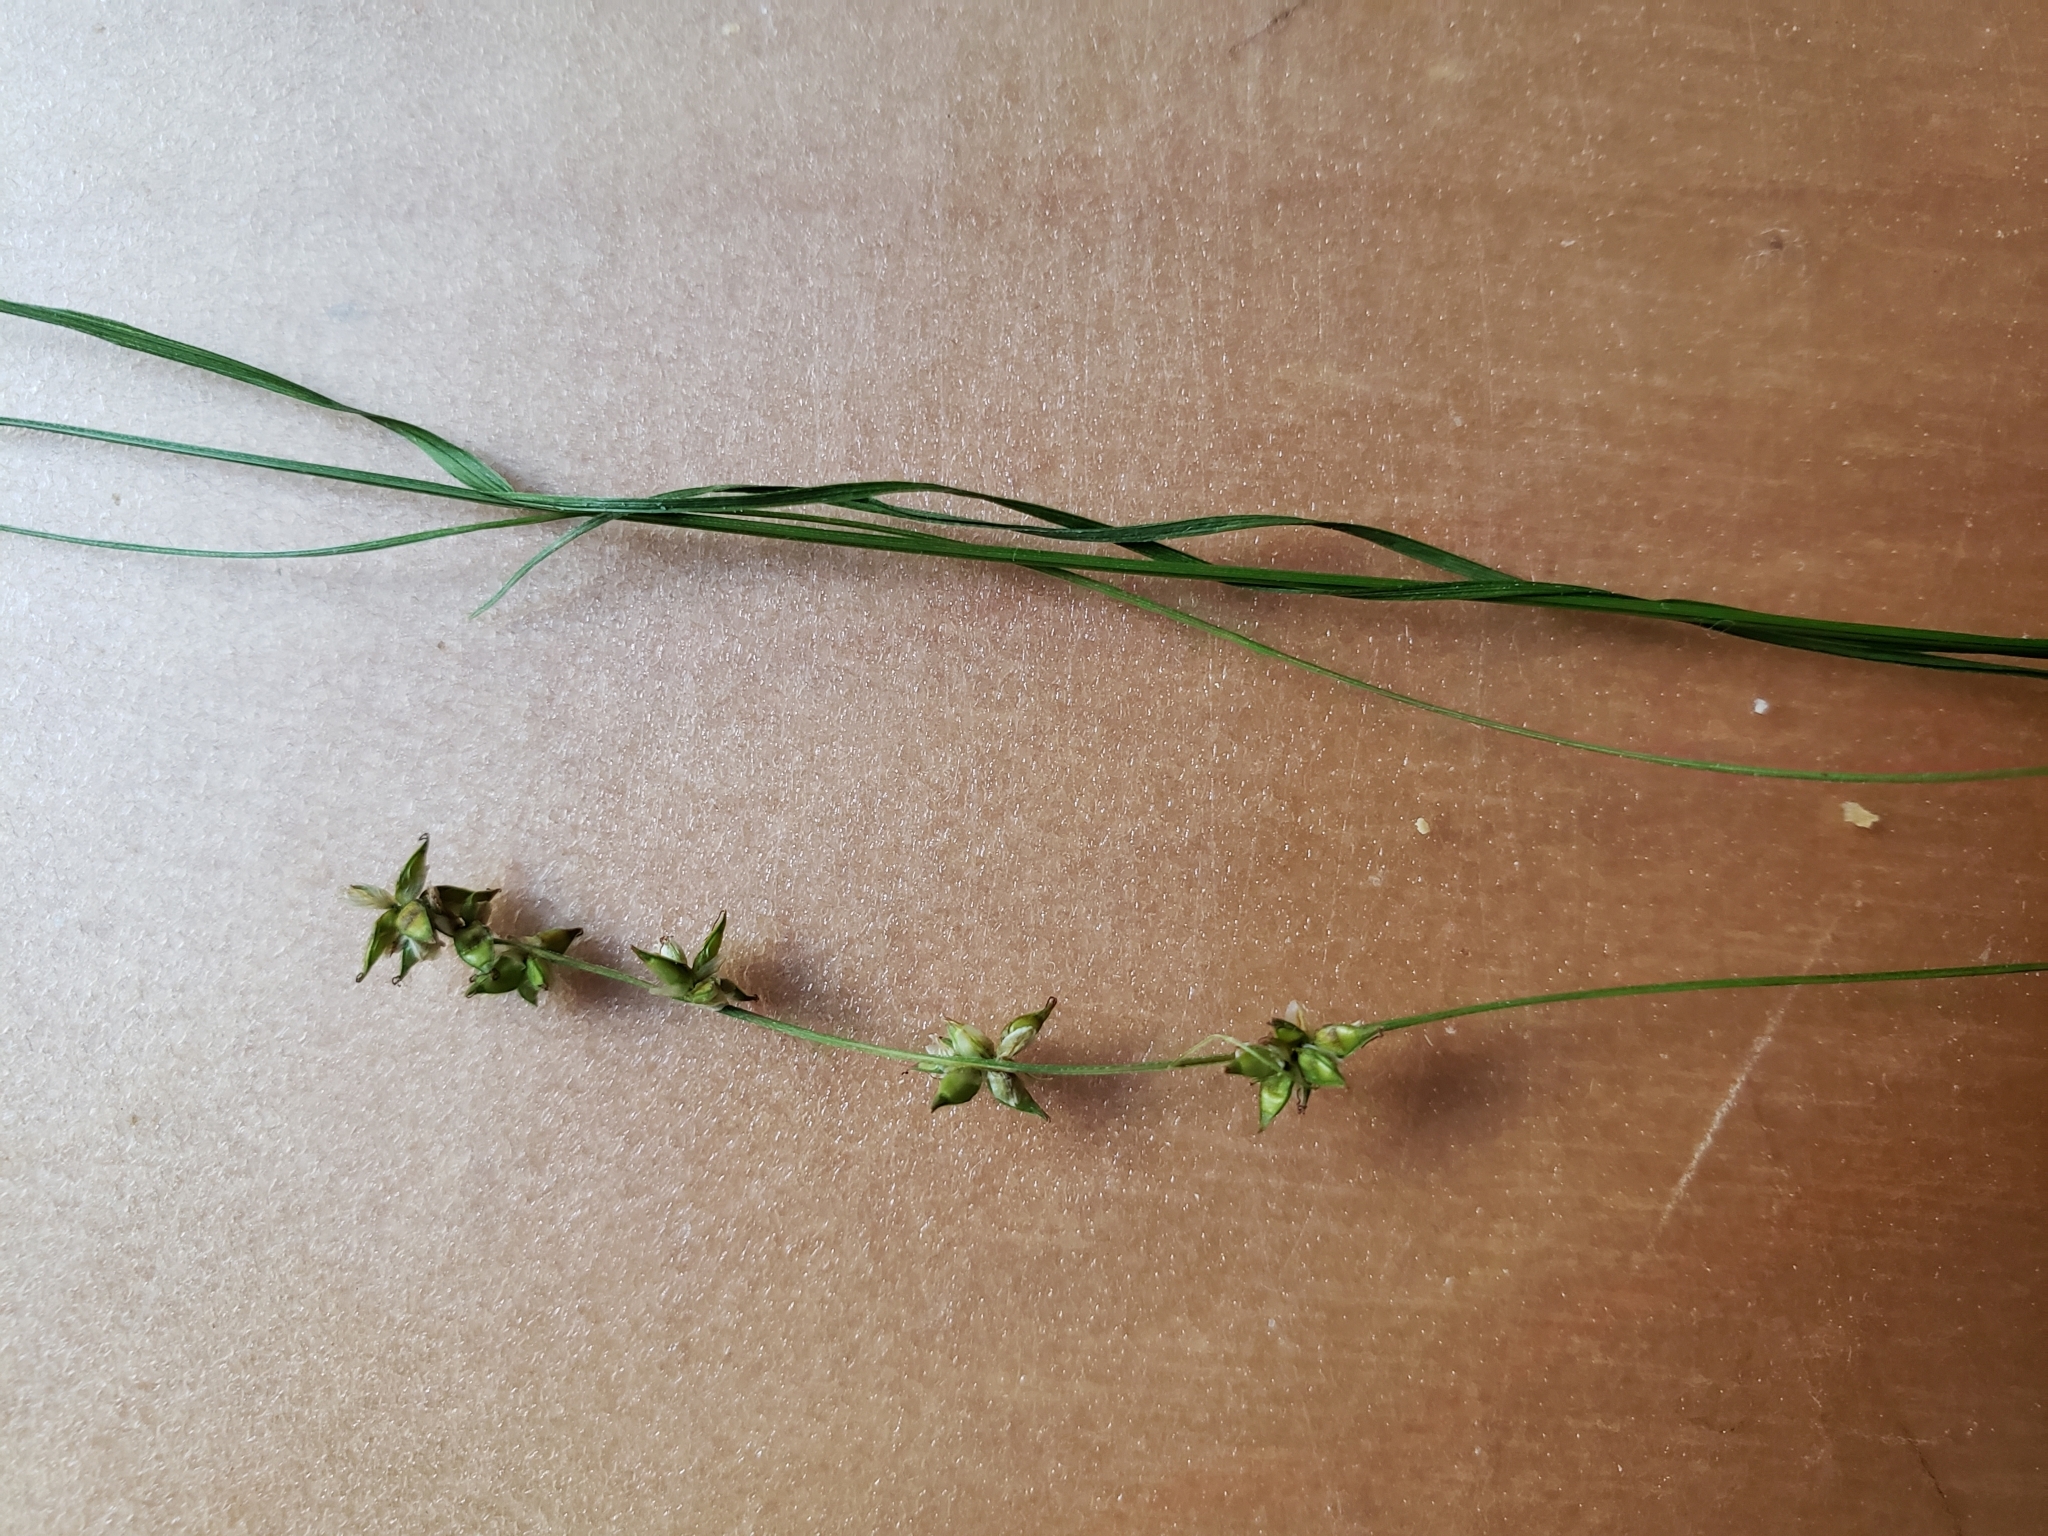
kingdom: Plantae
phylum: Tracheophyta
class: Liliopsida
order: Poales
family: Cyperaceae
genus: Carex
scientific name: Carex rosea
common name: Curly-styled wood sedge
